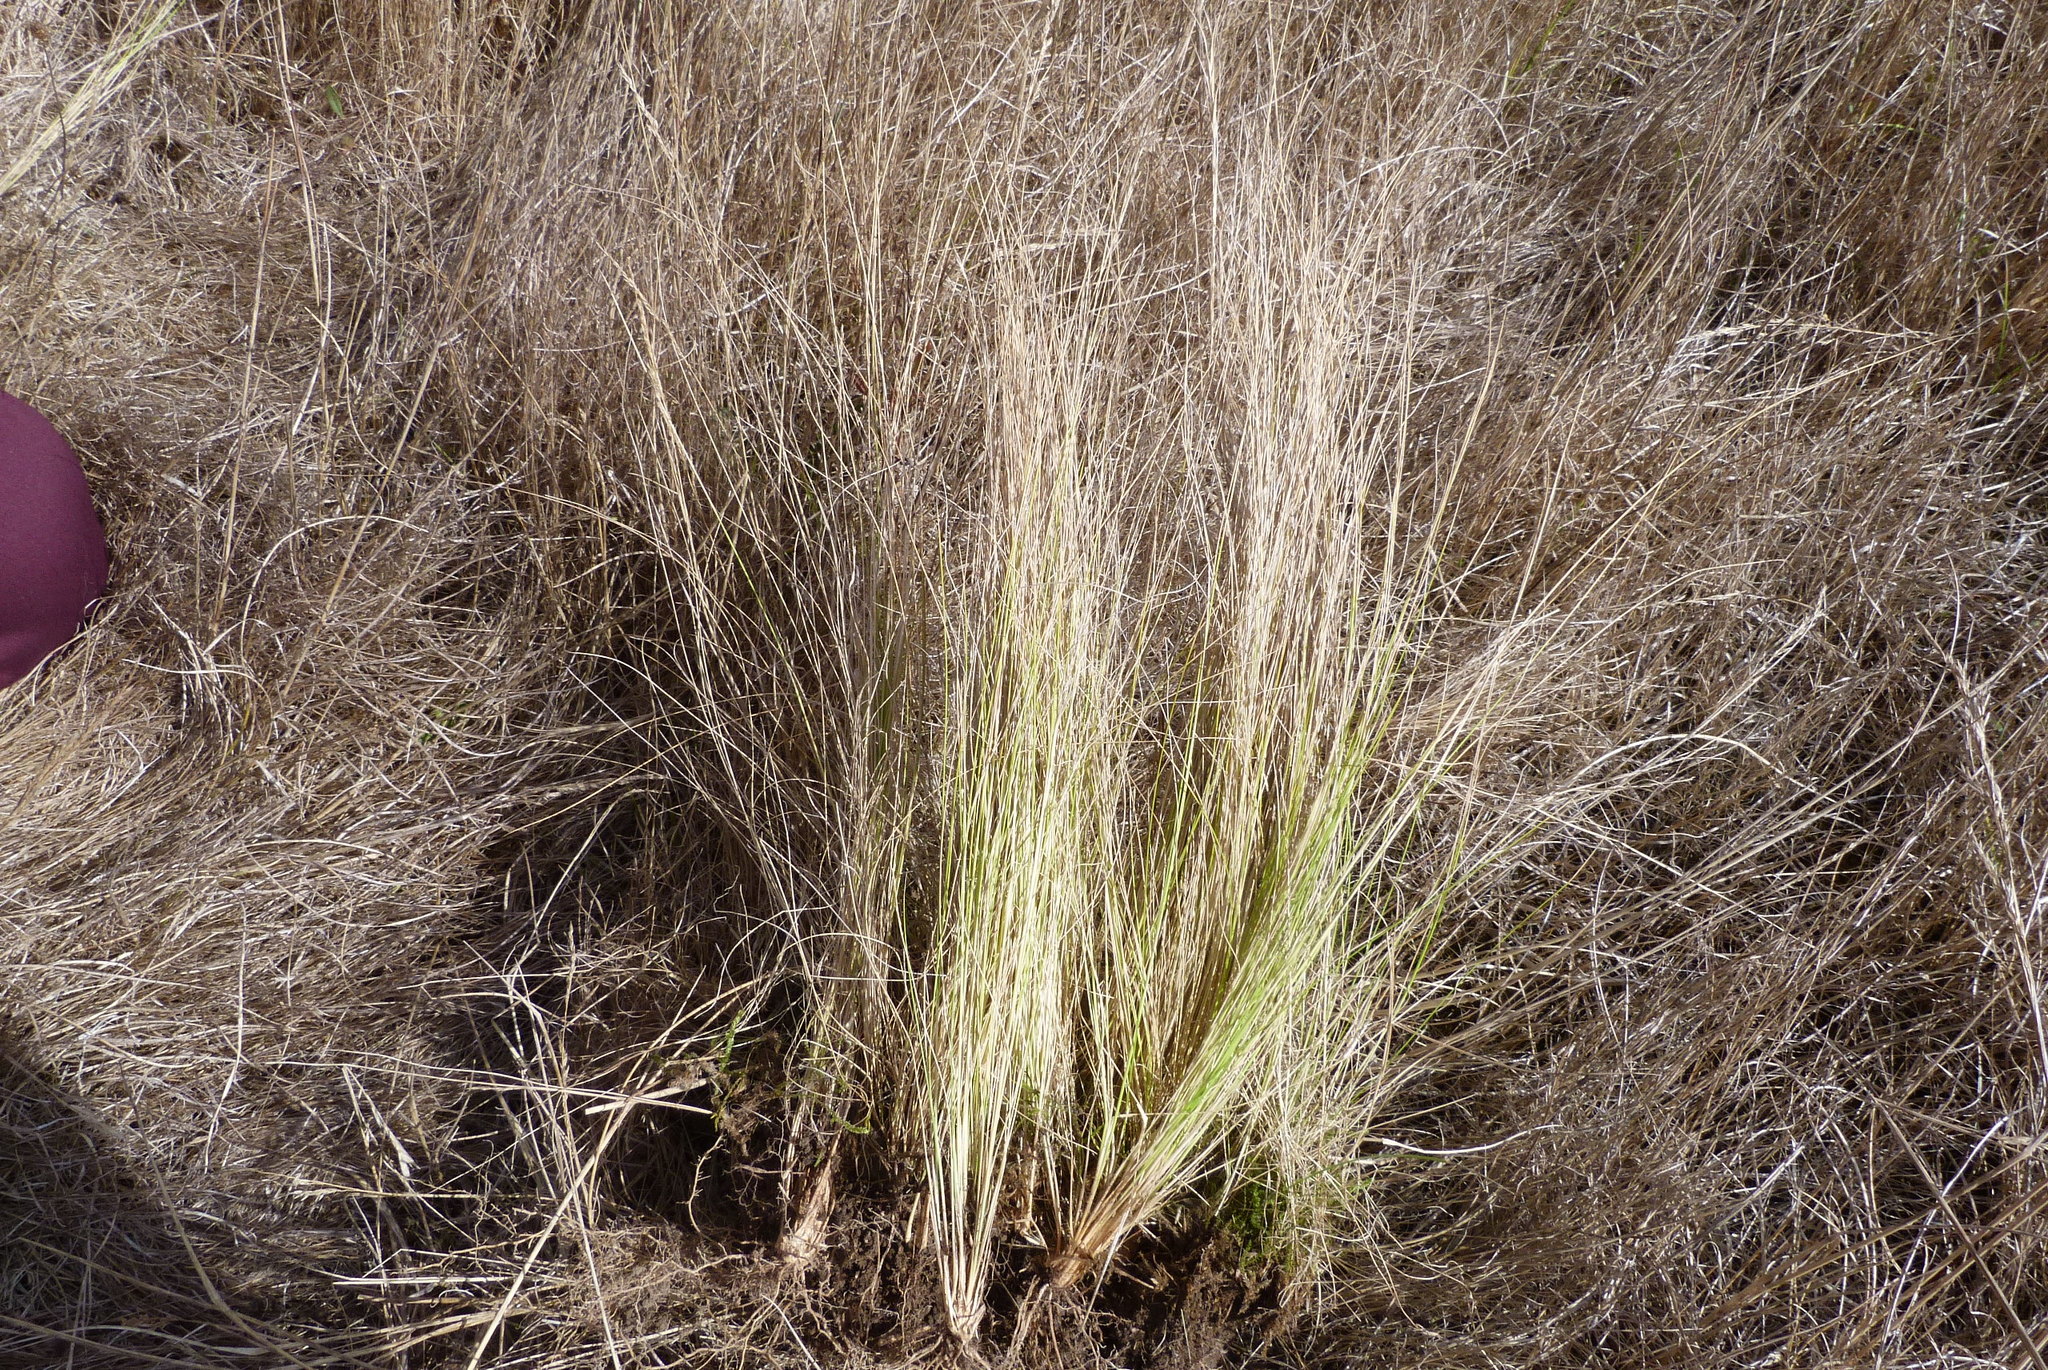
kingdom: Plantae
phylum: Tracheophyta
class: Liliopsida
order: Poales
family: Poaceae
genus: Nassella
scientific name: Nassella trichotoma
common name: Serrated tussock grass
